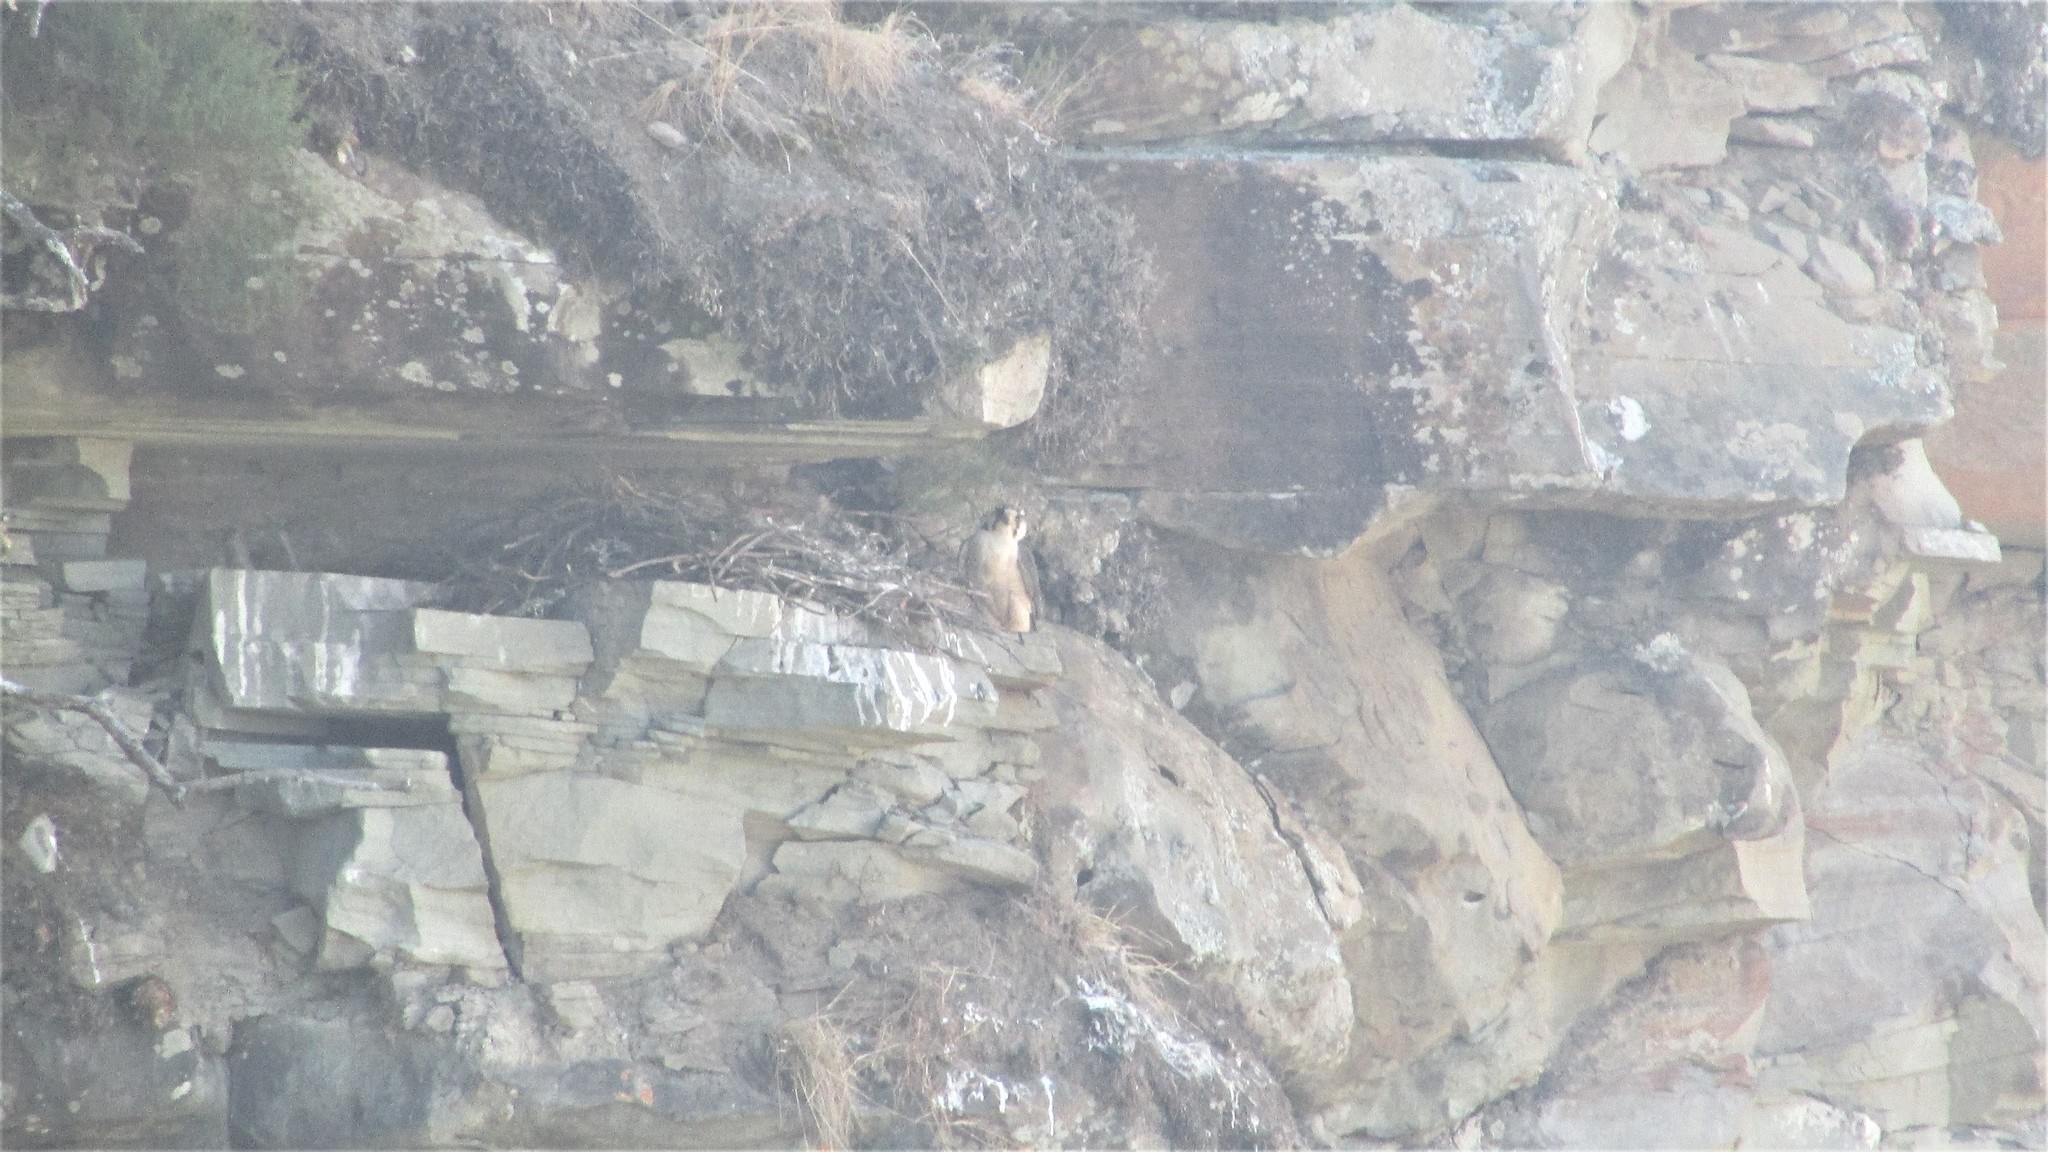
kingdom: Animalia
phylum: Chordata
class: Aves
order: Falconiformes
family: Falconidae
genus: Falco
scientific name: Falco biarmicus
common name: Lanner falcon
